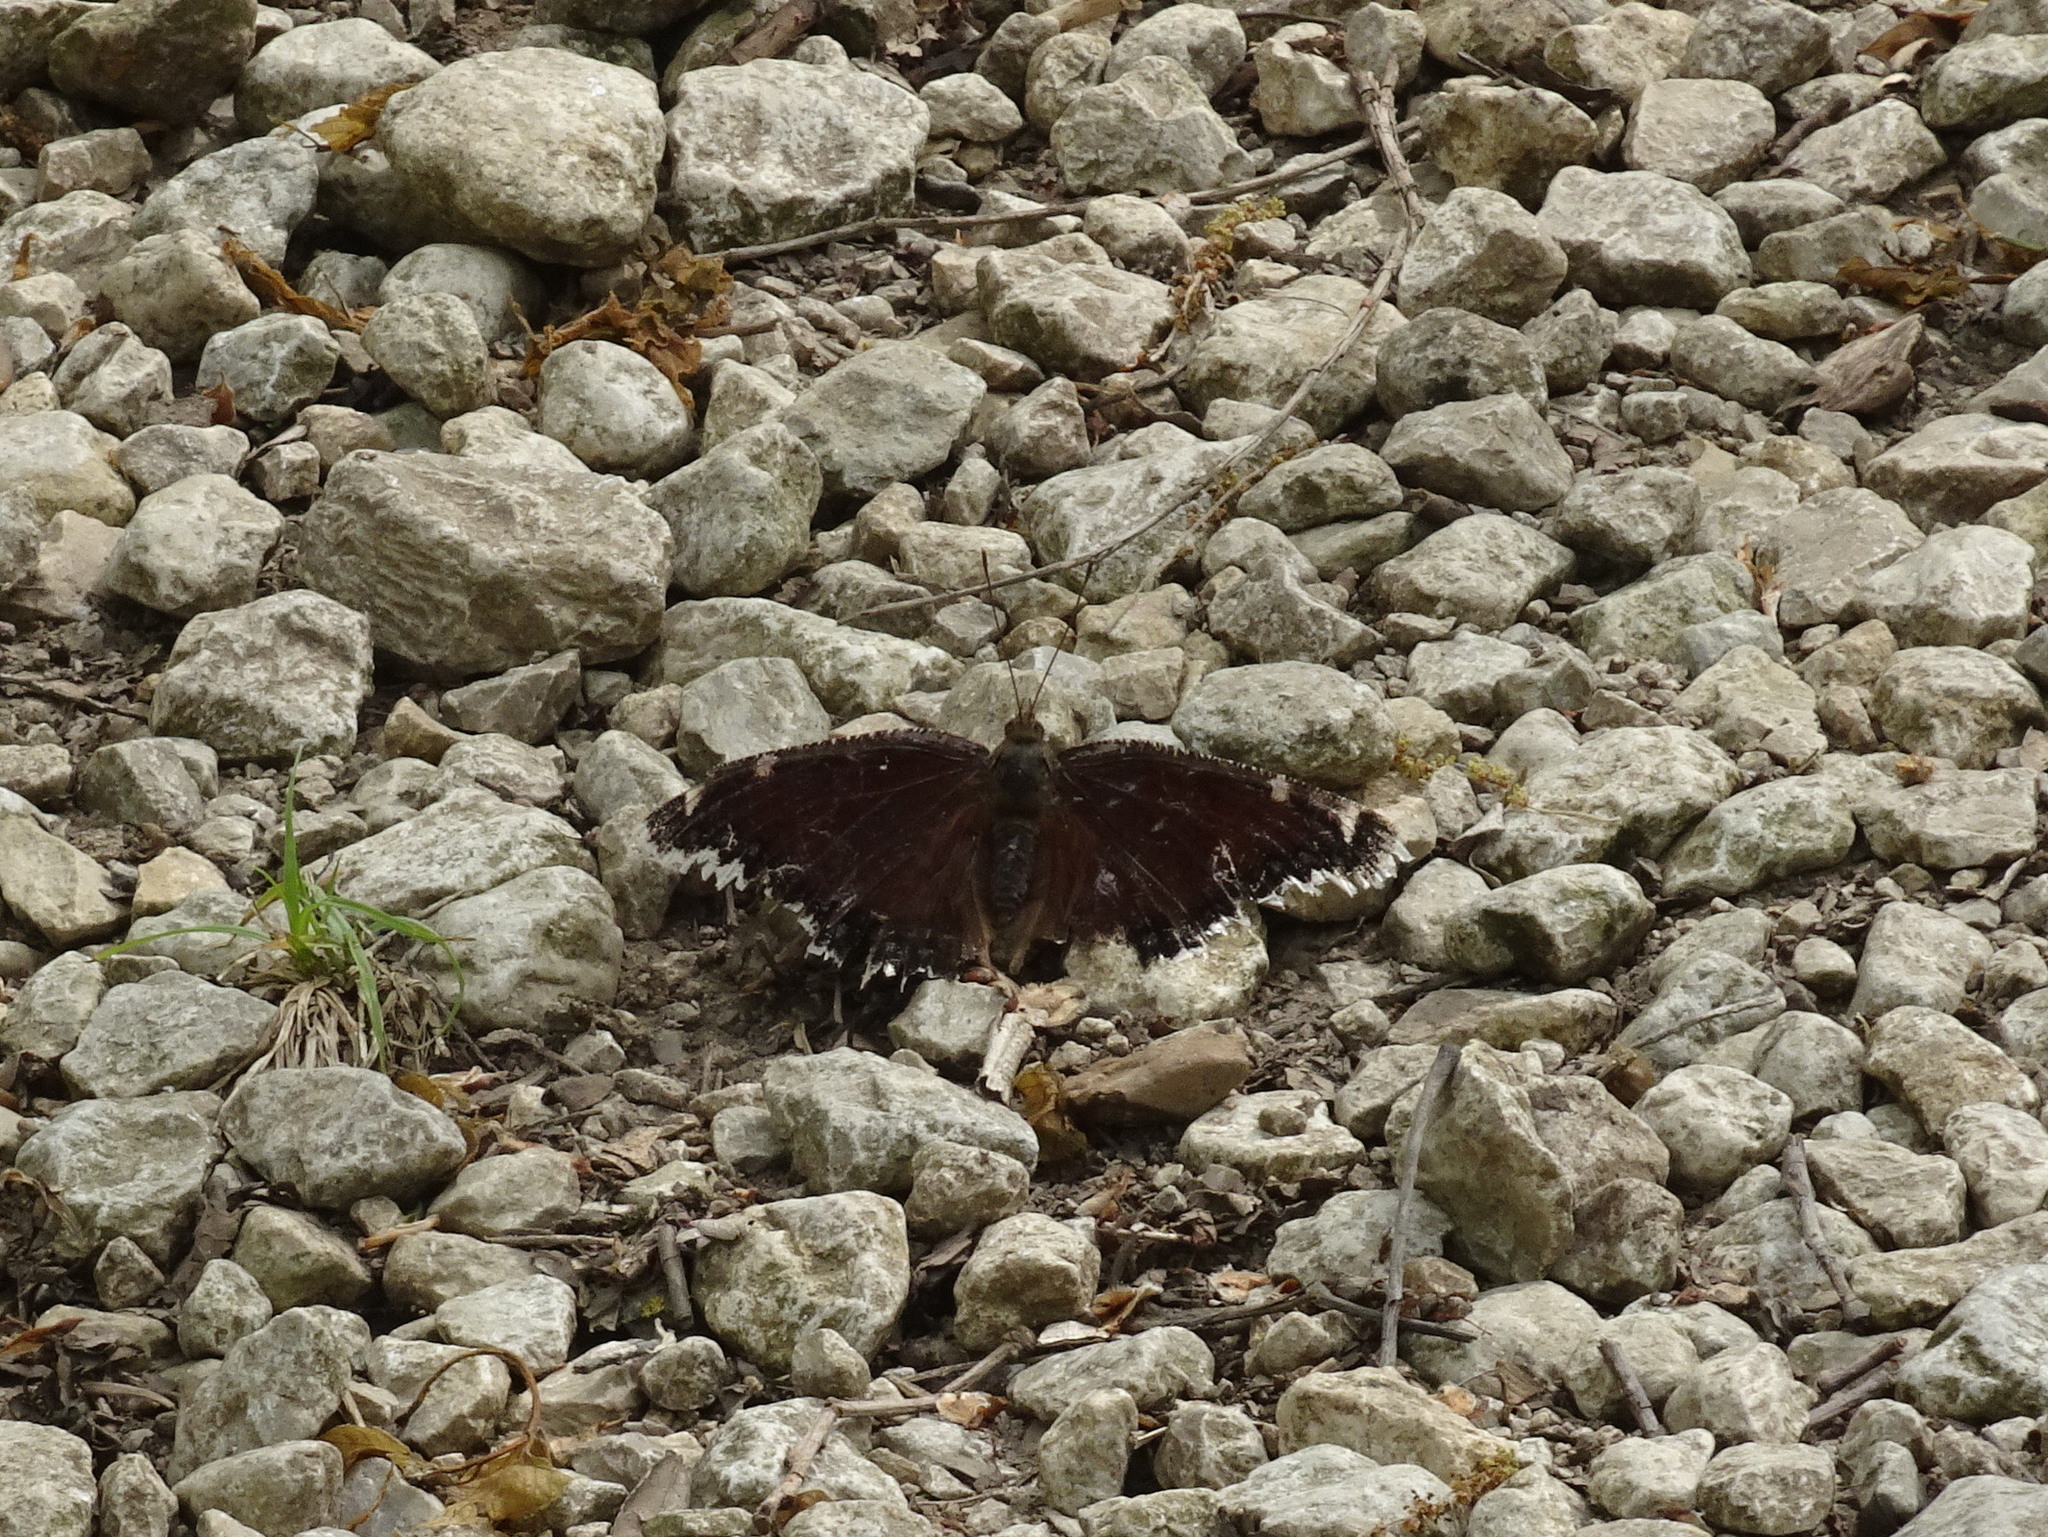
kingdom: Animalia
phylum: Arthropoda
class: Insecta
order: Lepidoptera
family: Nymphalidae
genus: Nymphalis
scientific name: Nymphalis antiopa
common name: Camberwell beauty
